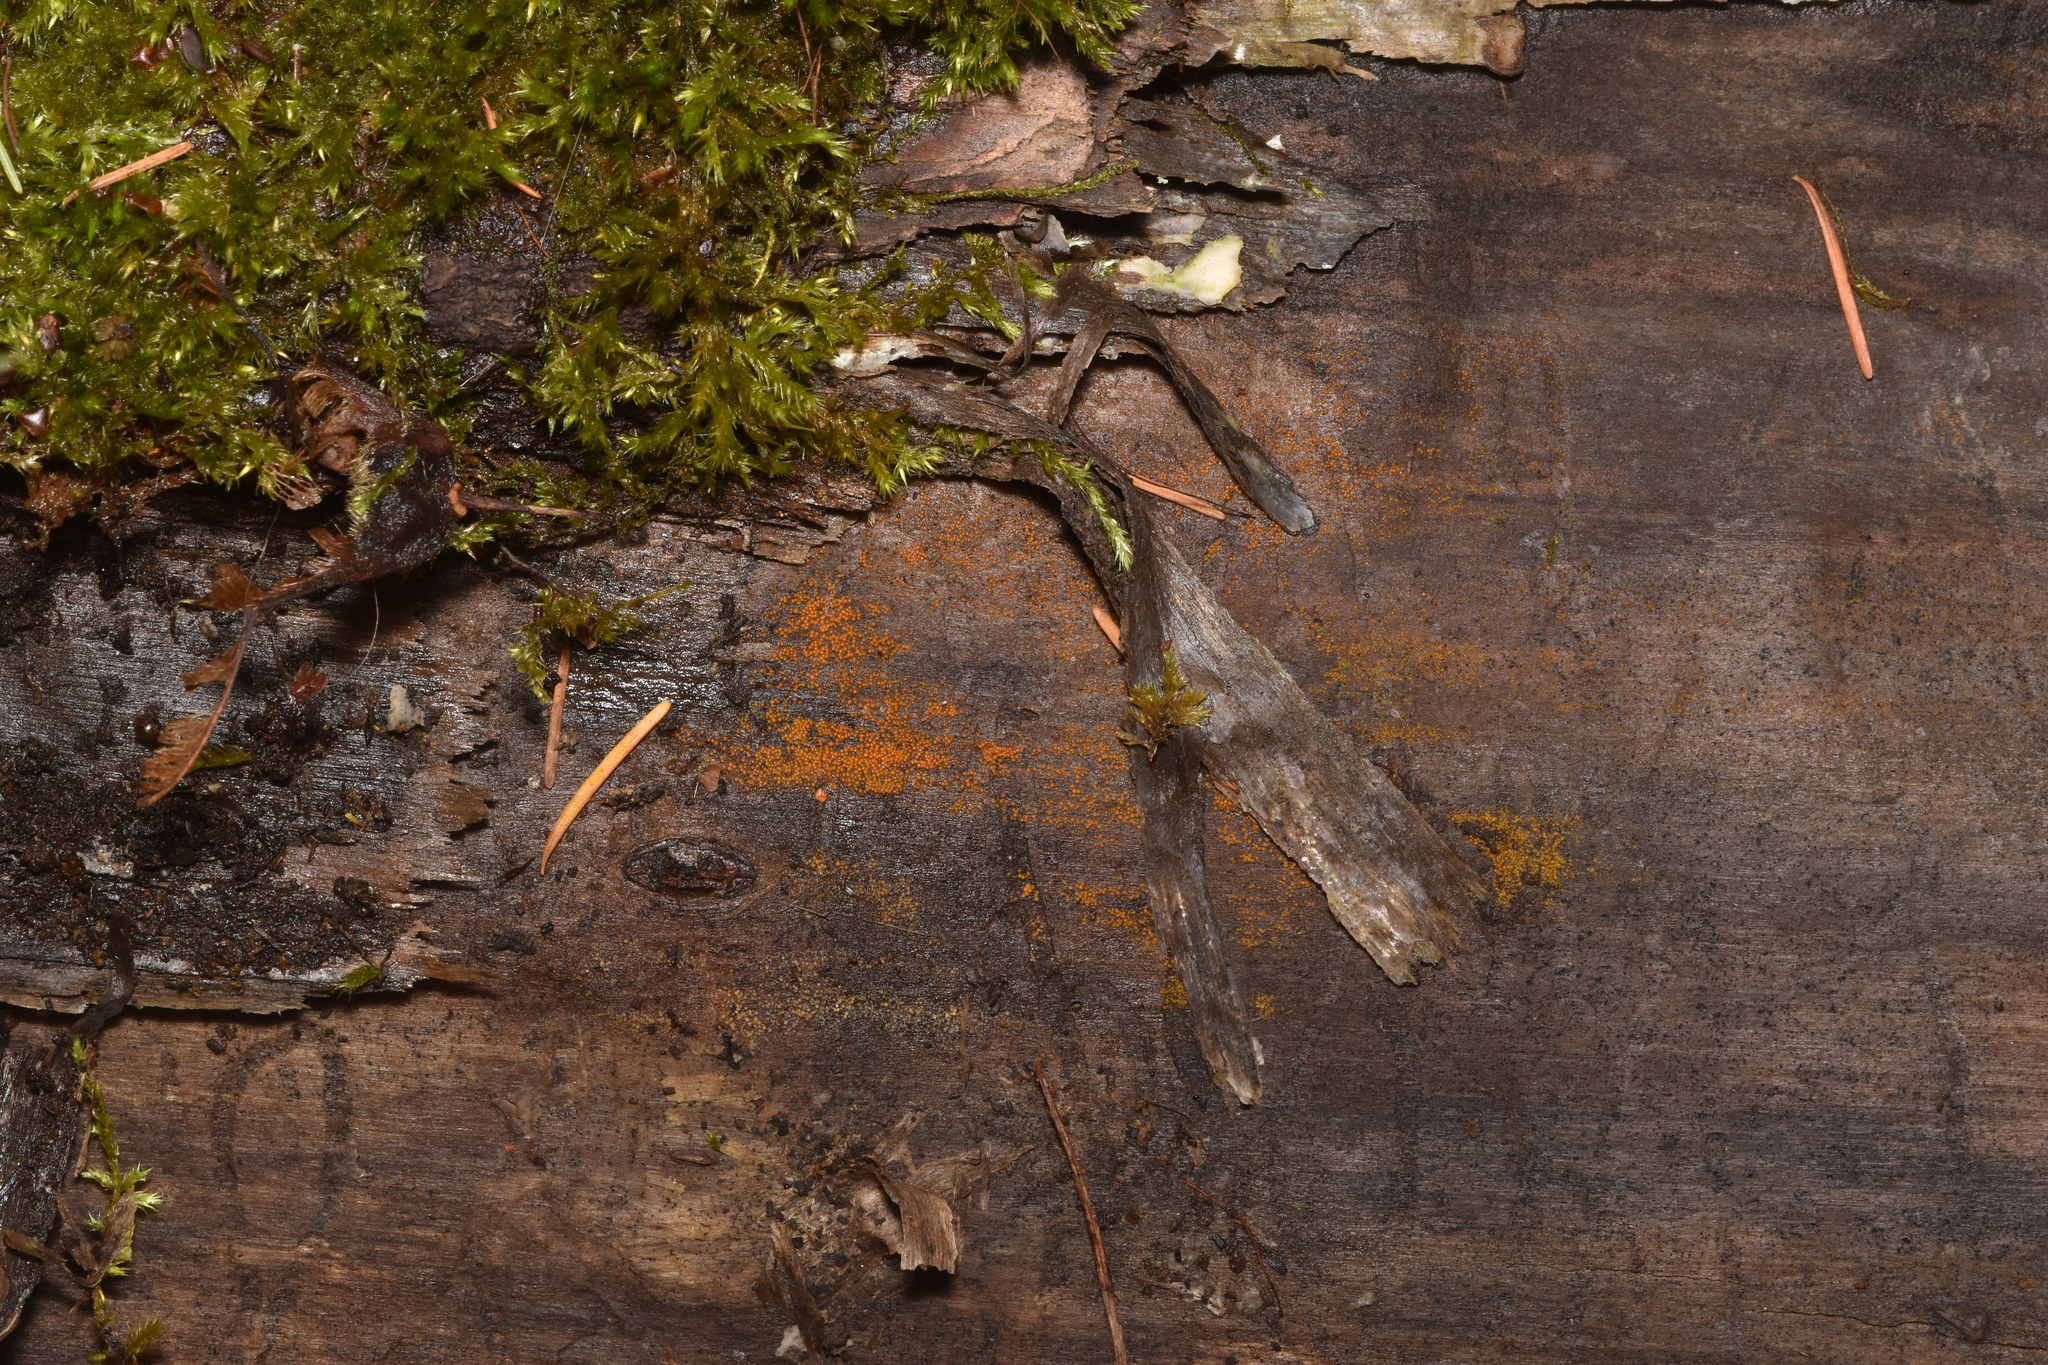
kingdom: Fungi
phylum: Ascomycota
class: Sordariomycetes
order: Hypocreales
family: Nectriaceae
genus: Hydropisphaera
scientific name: Hydropisphaera peziza
